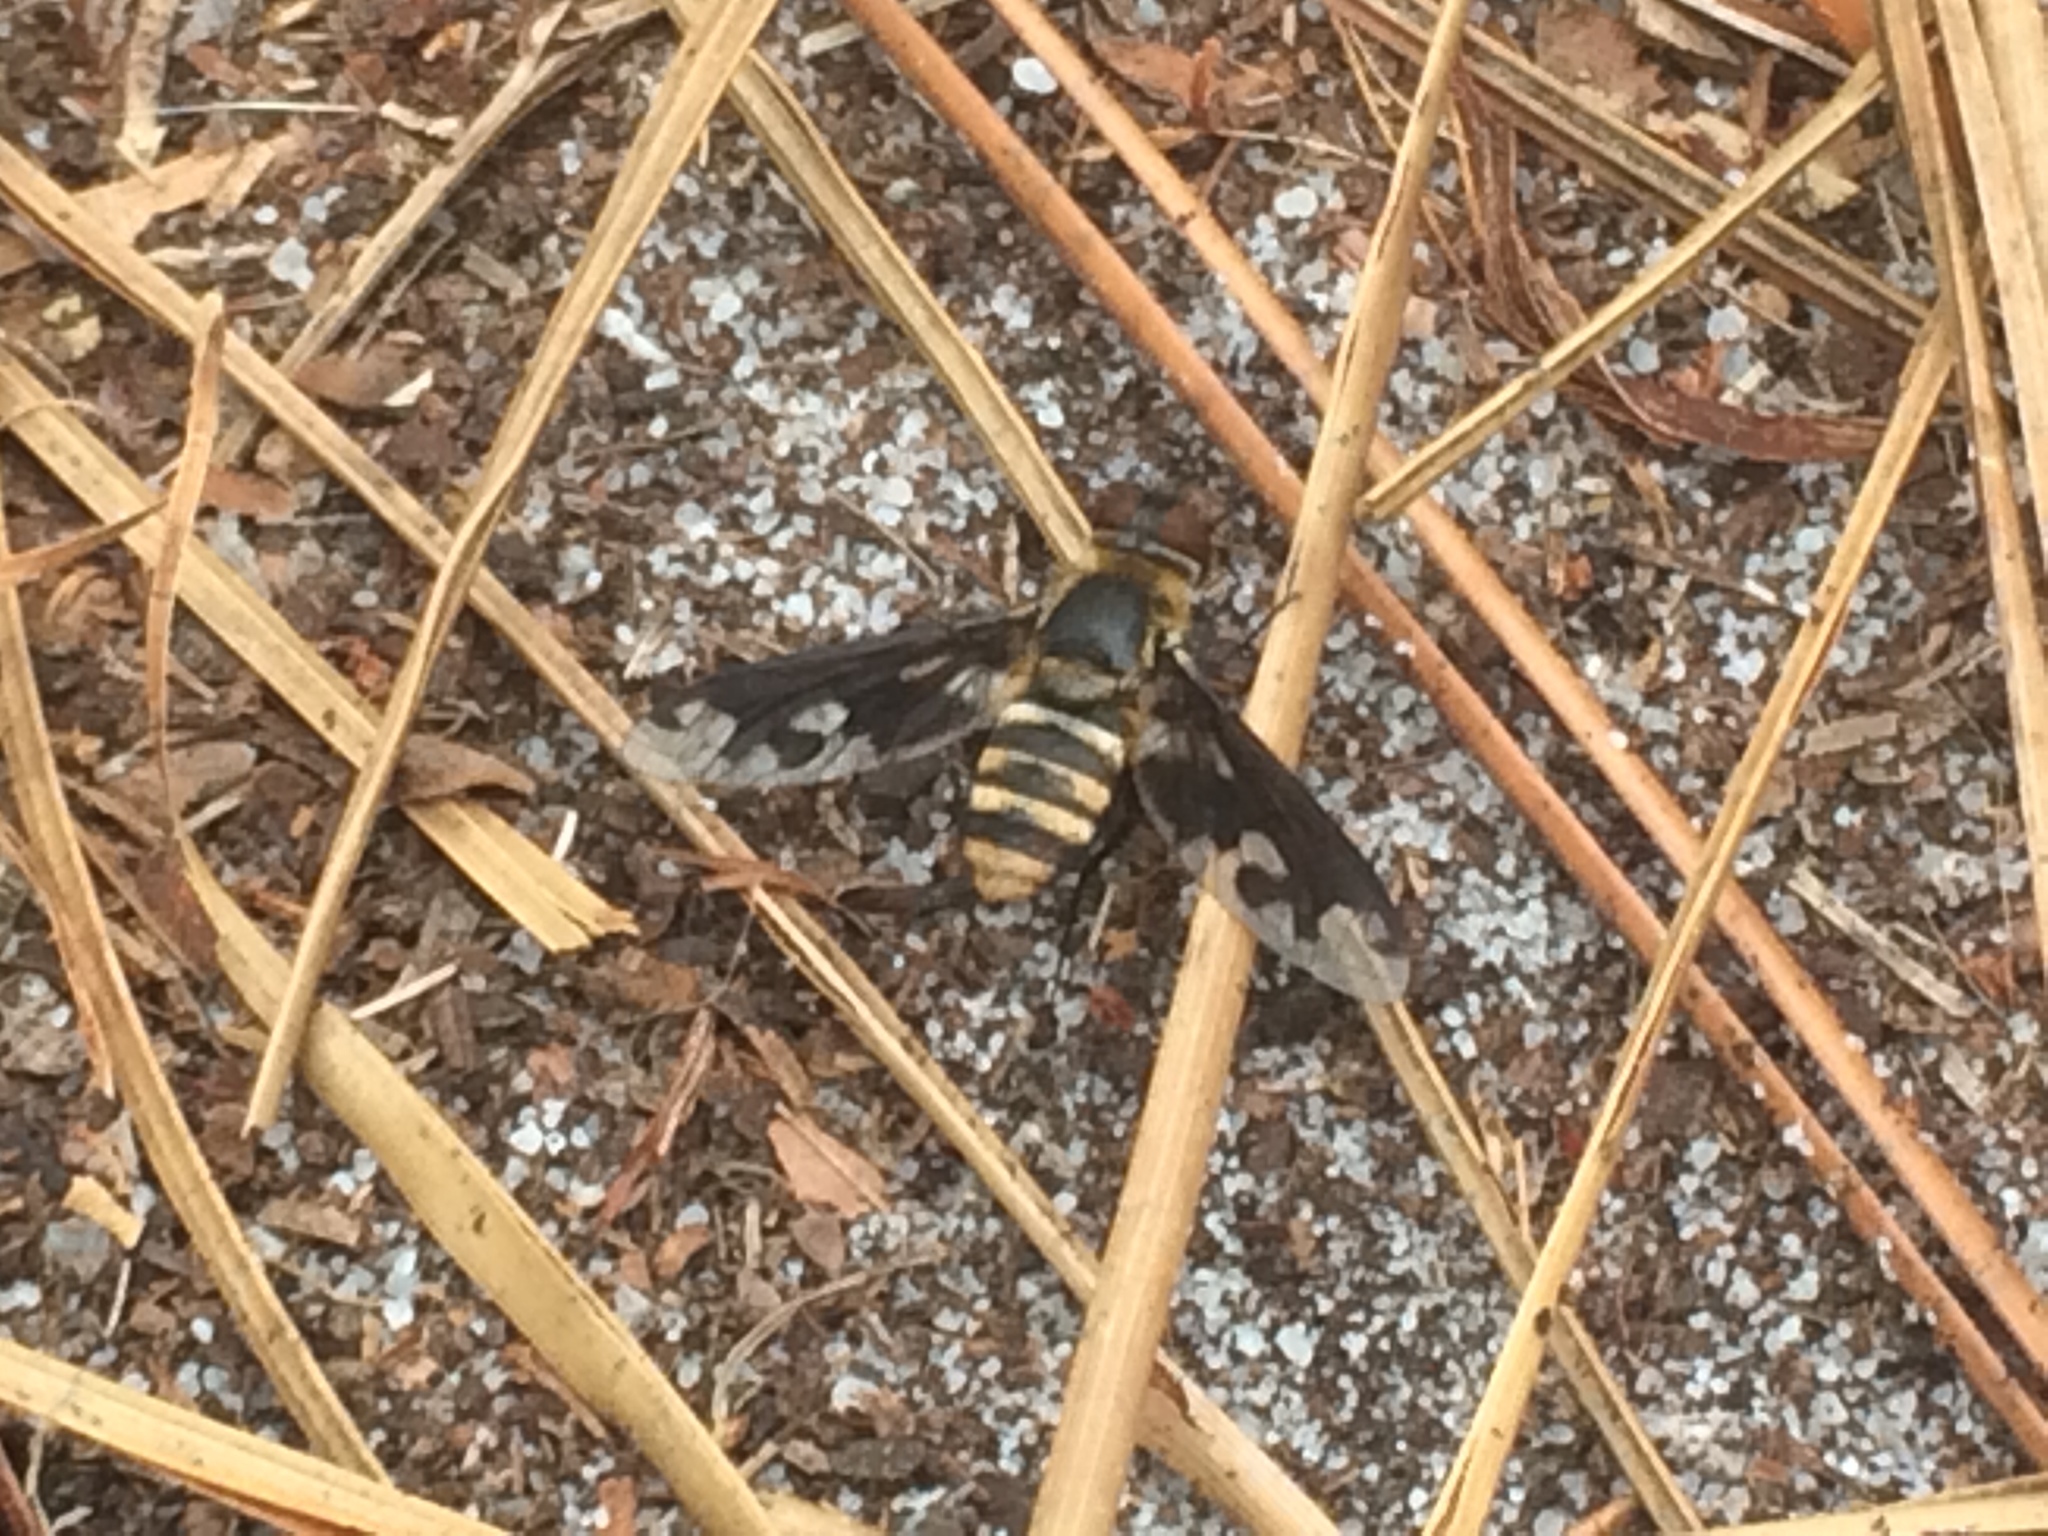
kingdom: Animalia
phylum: Arthropoda
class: Insecta
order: Diptera
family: Bombyliidae
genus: Exoprosopa
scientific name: Exoprosopa fascipennis
